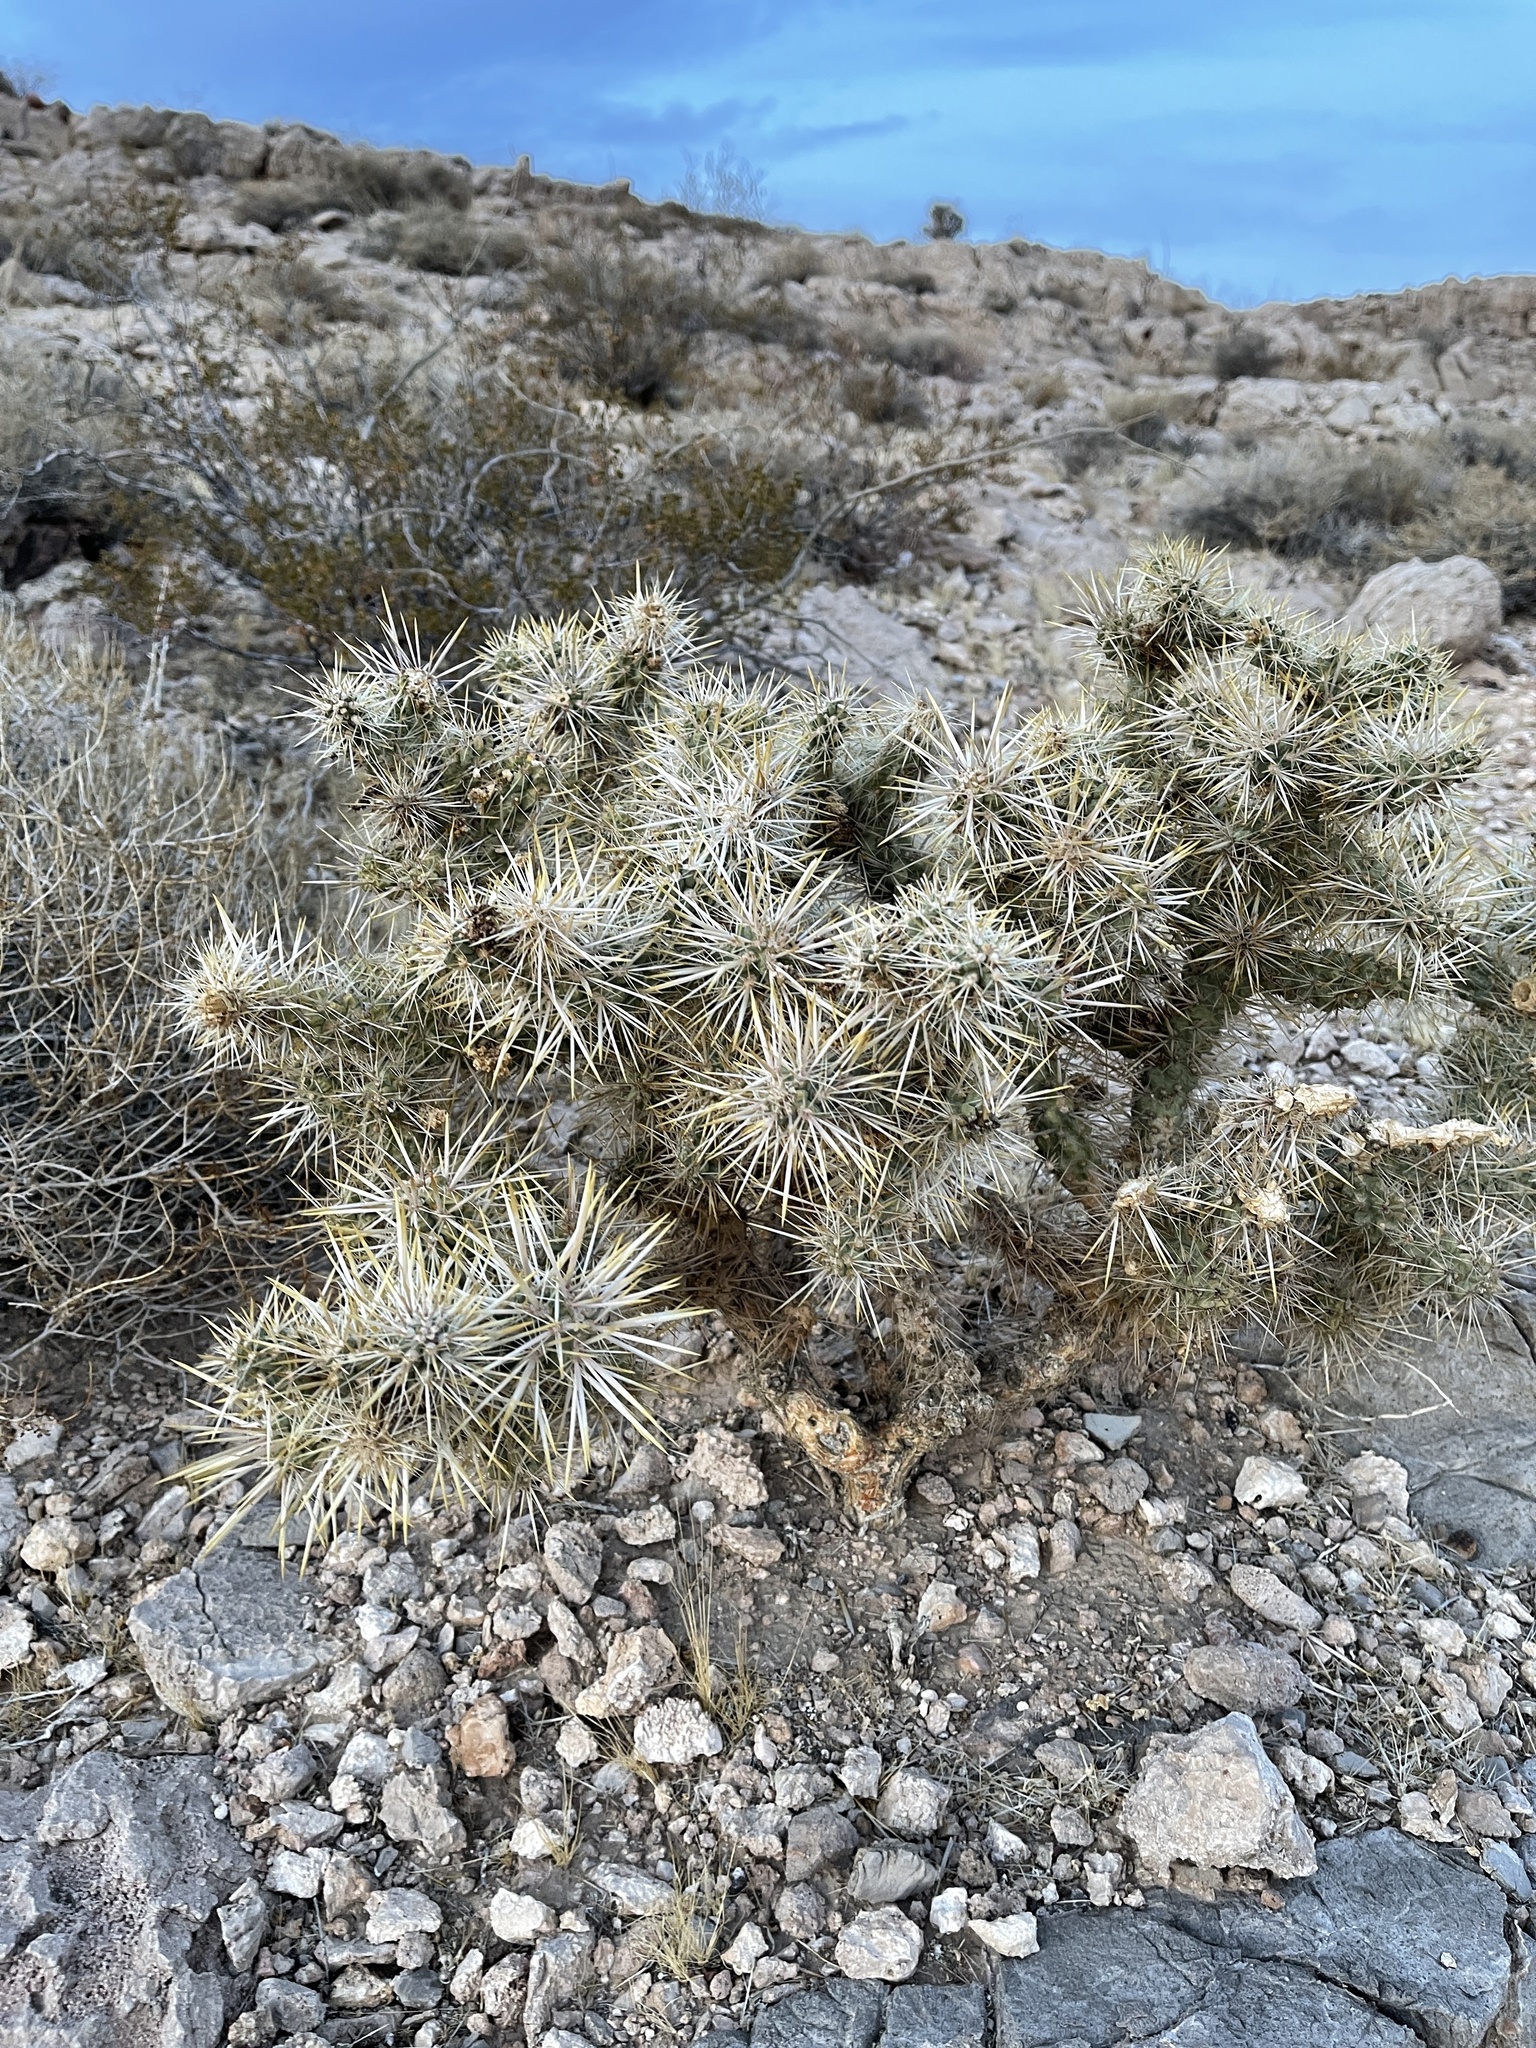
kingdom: Plantae
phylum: Tracheophyta
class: Magnoliopsida
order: Caryophyllales
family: Cactaceae
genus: Cylindropuntia
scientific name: Cylindropuntia echinocarpa
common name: Ground cholla
